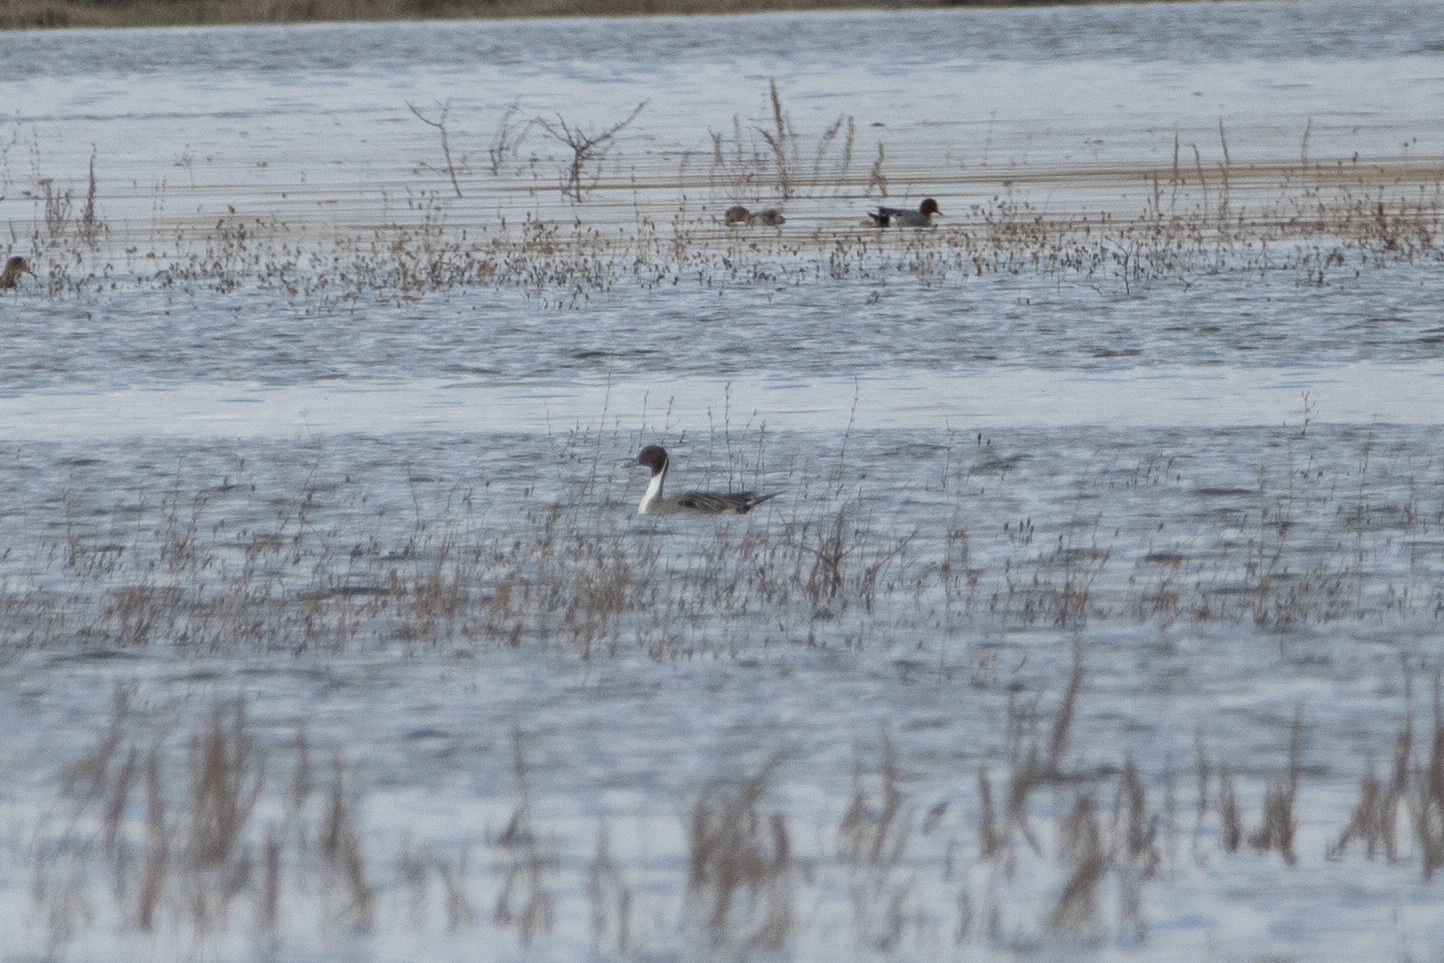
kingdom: Animalia
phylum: Chordata
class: Aves
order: Anseriformes
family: Anatidae
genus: Anas
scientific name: Anas acuta
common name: Northern pintail
